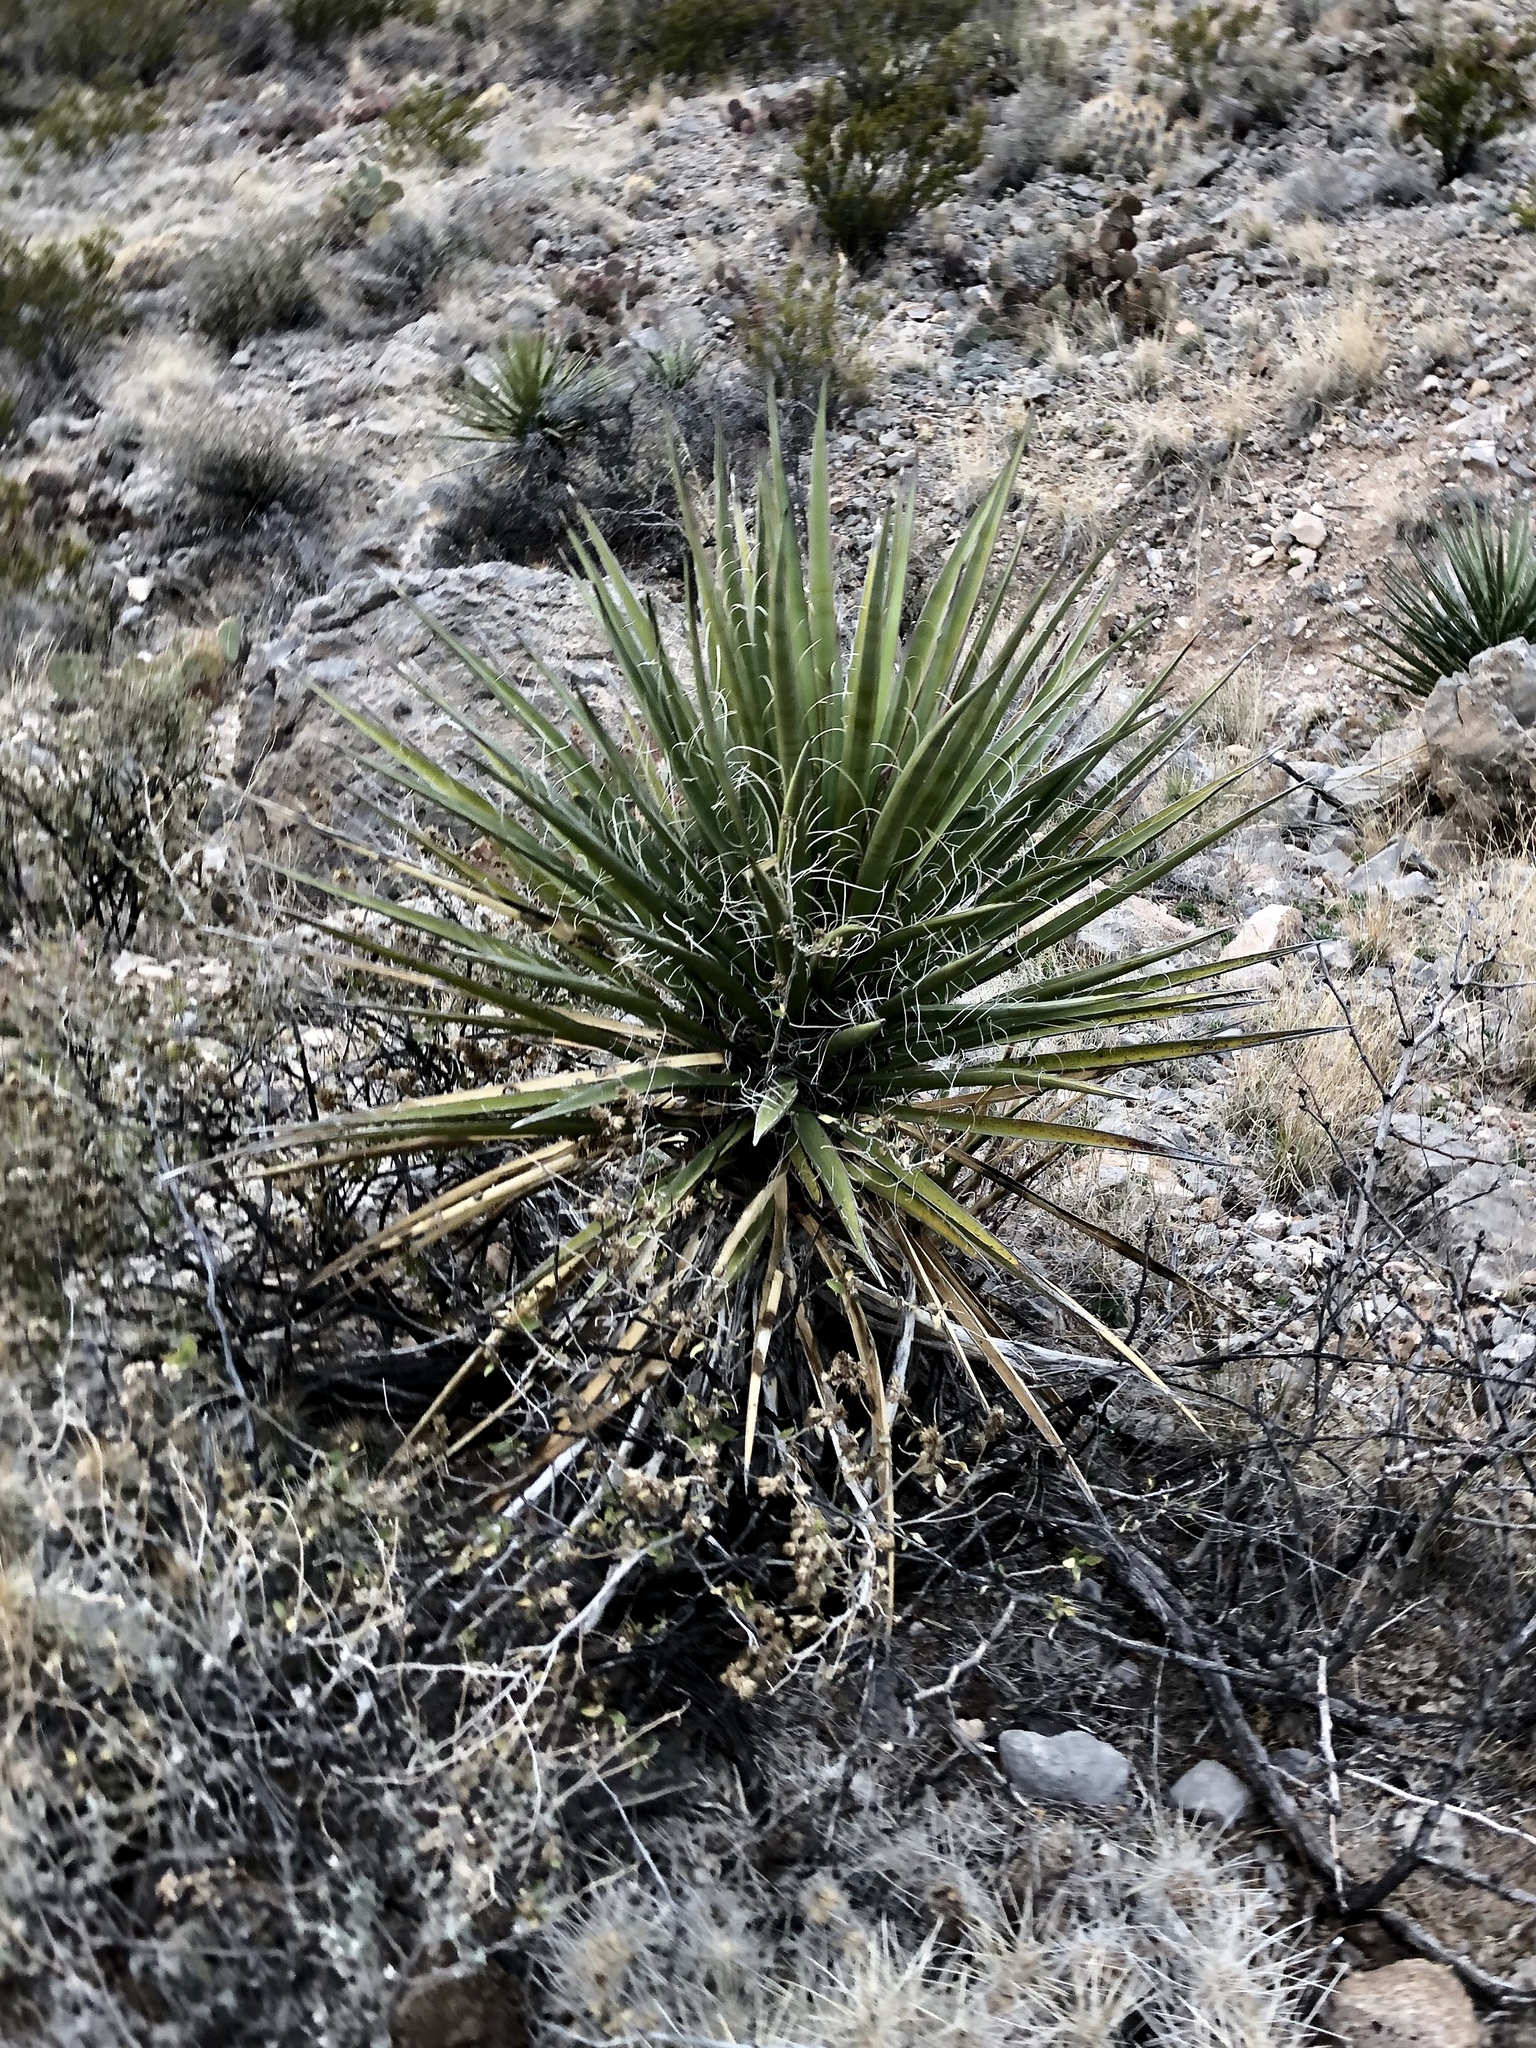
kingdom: Plantae
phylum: Tracheophyta
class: Liliopsida
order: Asparagales
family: Asparagaceae
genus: Yucca
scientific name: Yucca baccata
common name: Banana yucca
